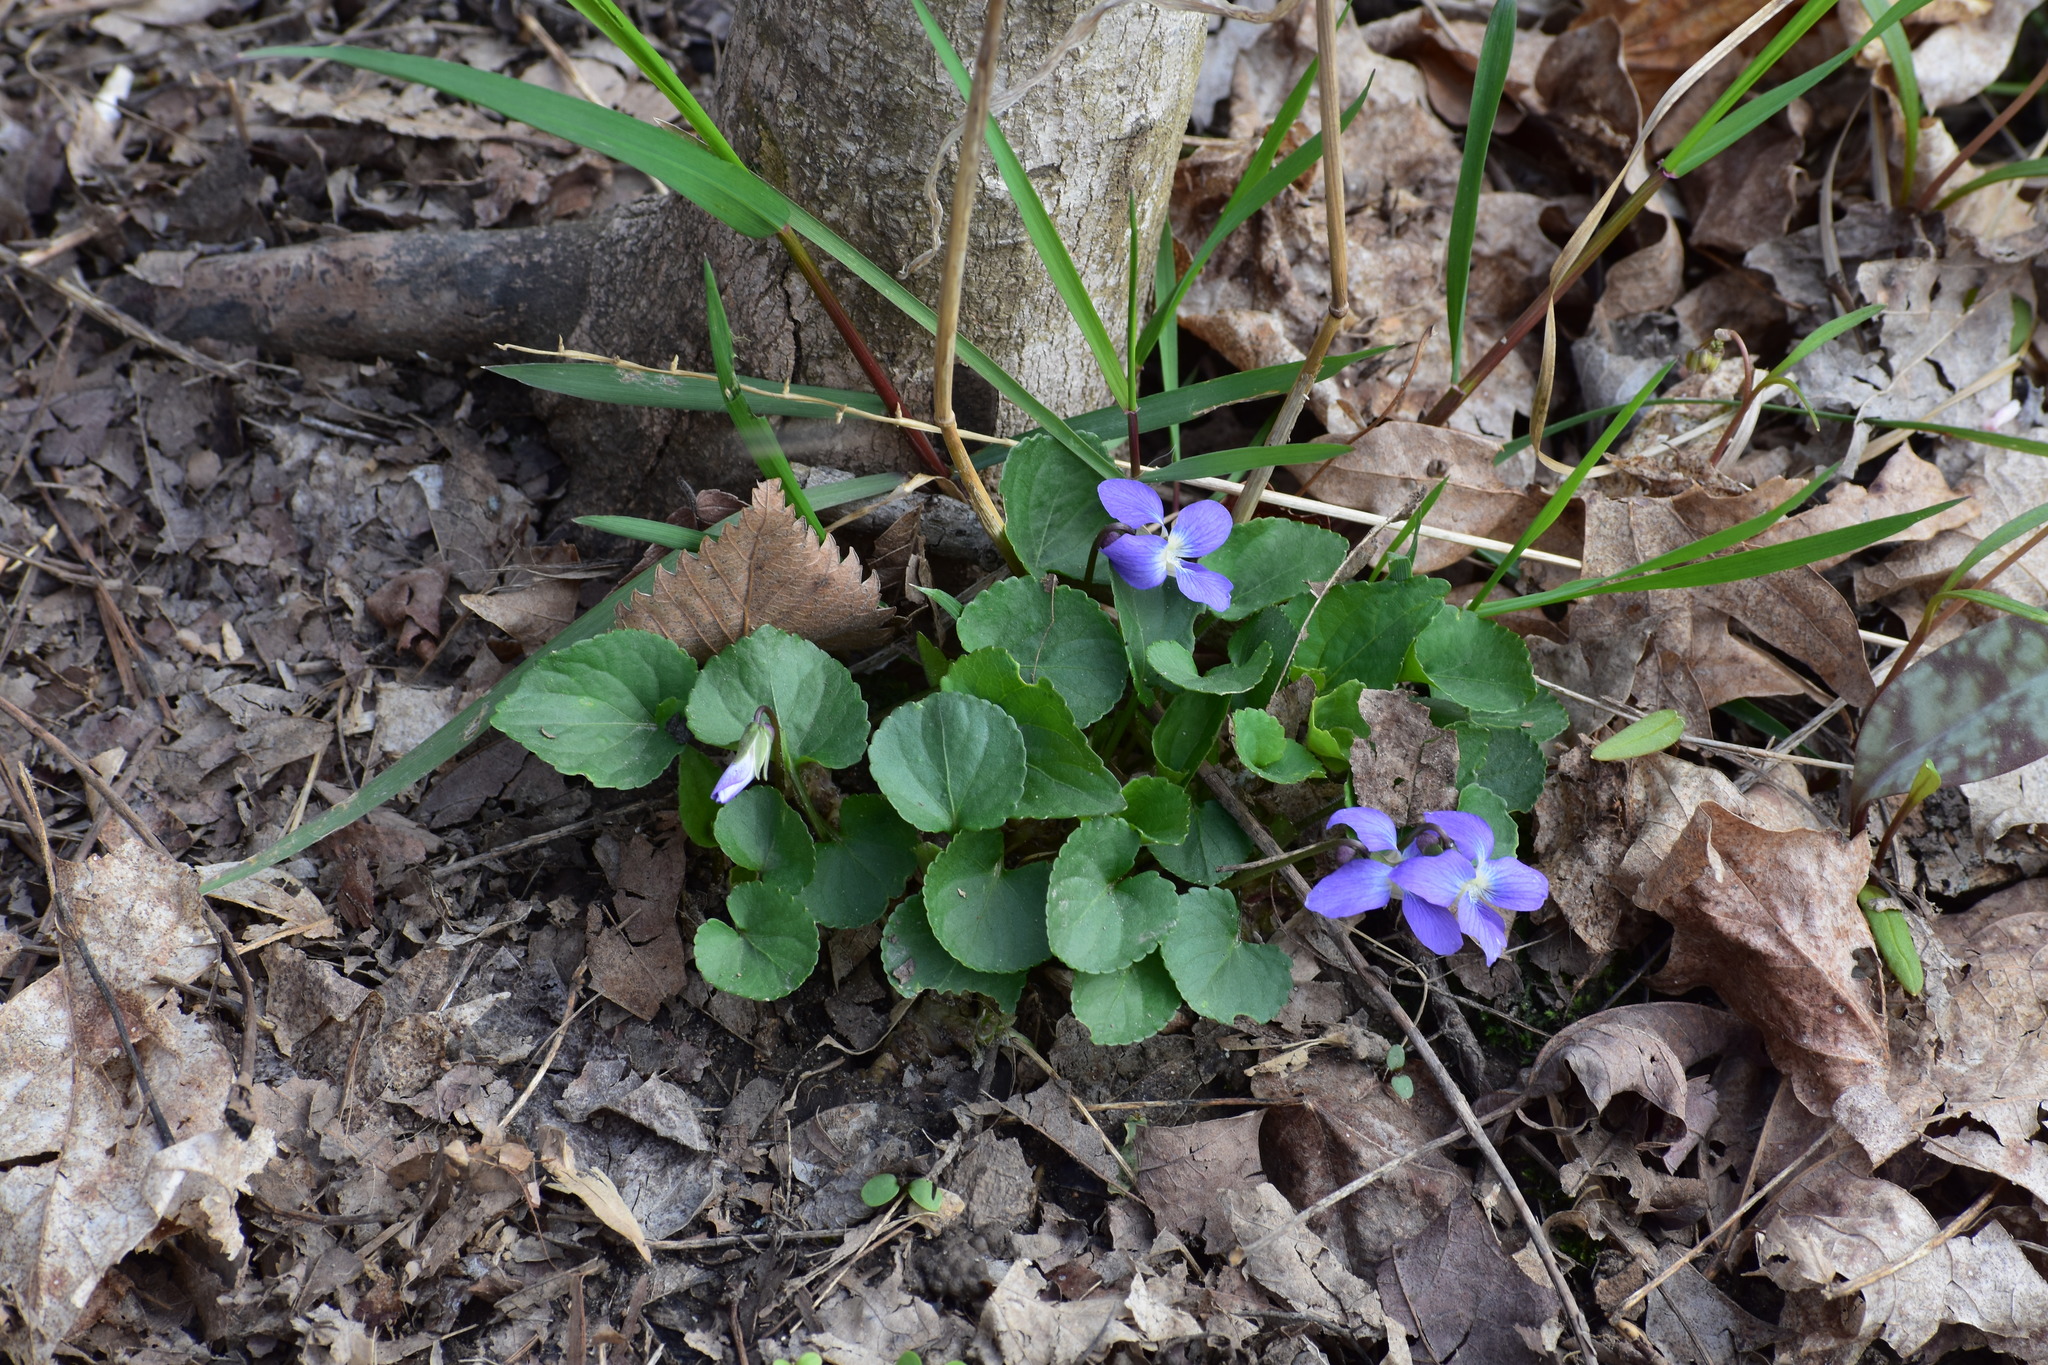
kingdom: Plantae
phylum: Tracheophyta
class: Magnoliopsida
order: Malpighiales
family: Violaceae
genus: Viola
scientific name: Viola sororia
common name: Dooryard violet
